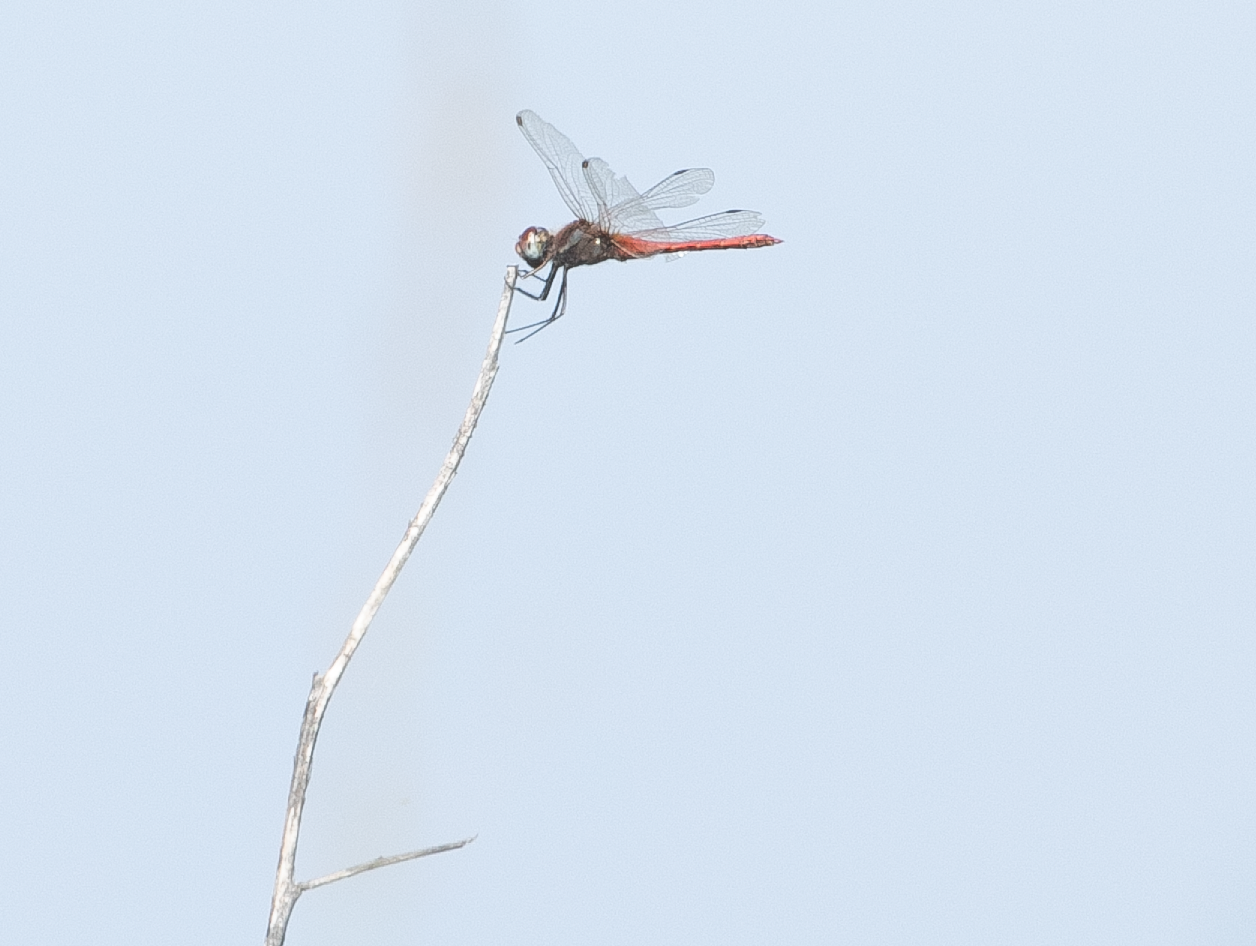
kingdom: Animalia
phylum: Arthropoda
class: Insecta
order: Odonata
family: Libellulidae
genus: Sympetrum
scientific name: Sympetrum fonscolombii
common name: Red-veined darter
